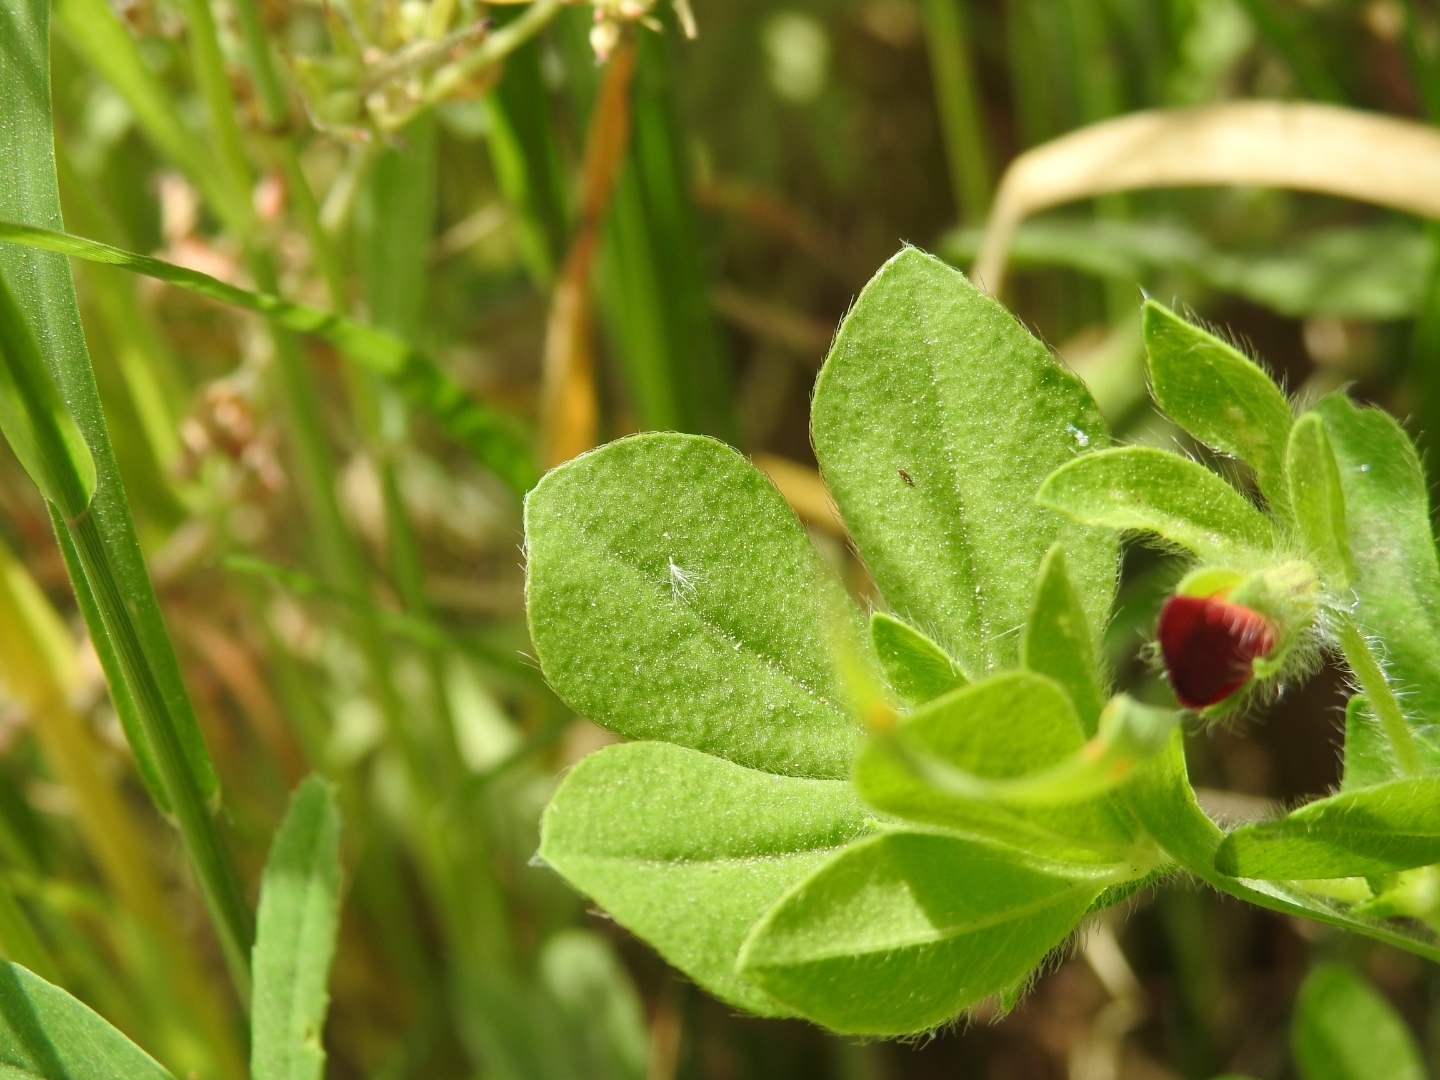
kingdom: Plantae
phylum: Tracheophyta
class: Magnoliopsida
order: Fabales
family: Fabaceae
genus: Lotus
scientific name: Lotus tetragonolobus
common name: Asparagus-pea
